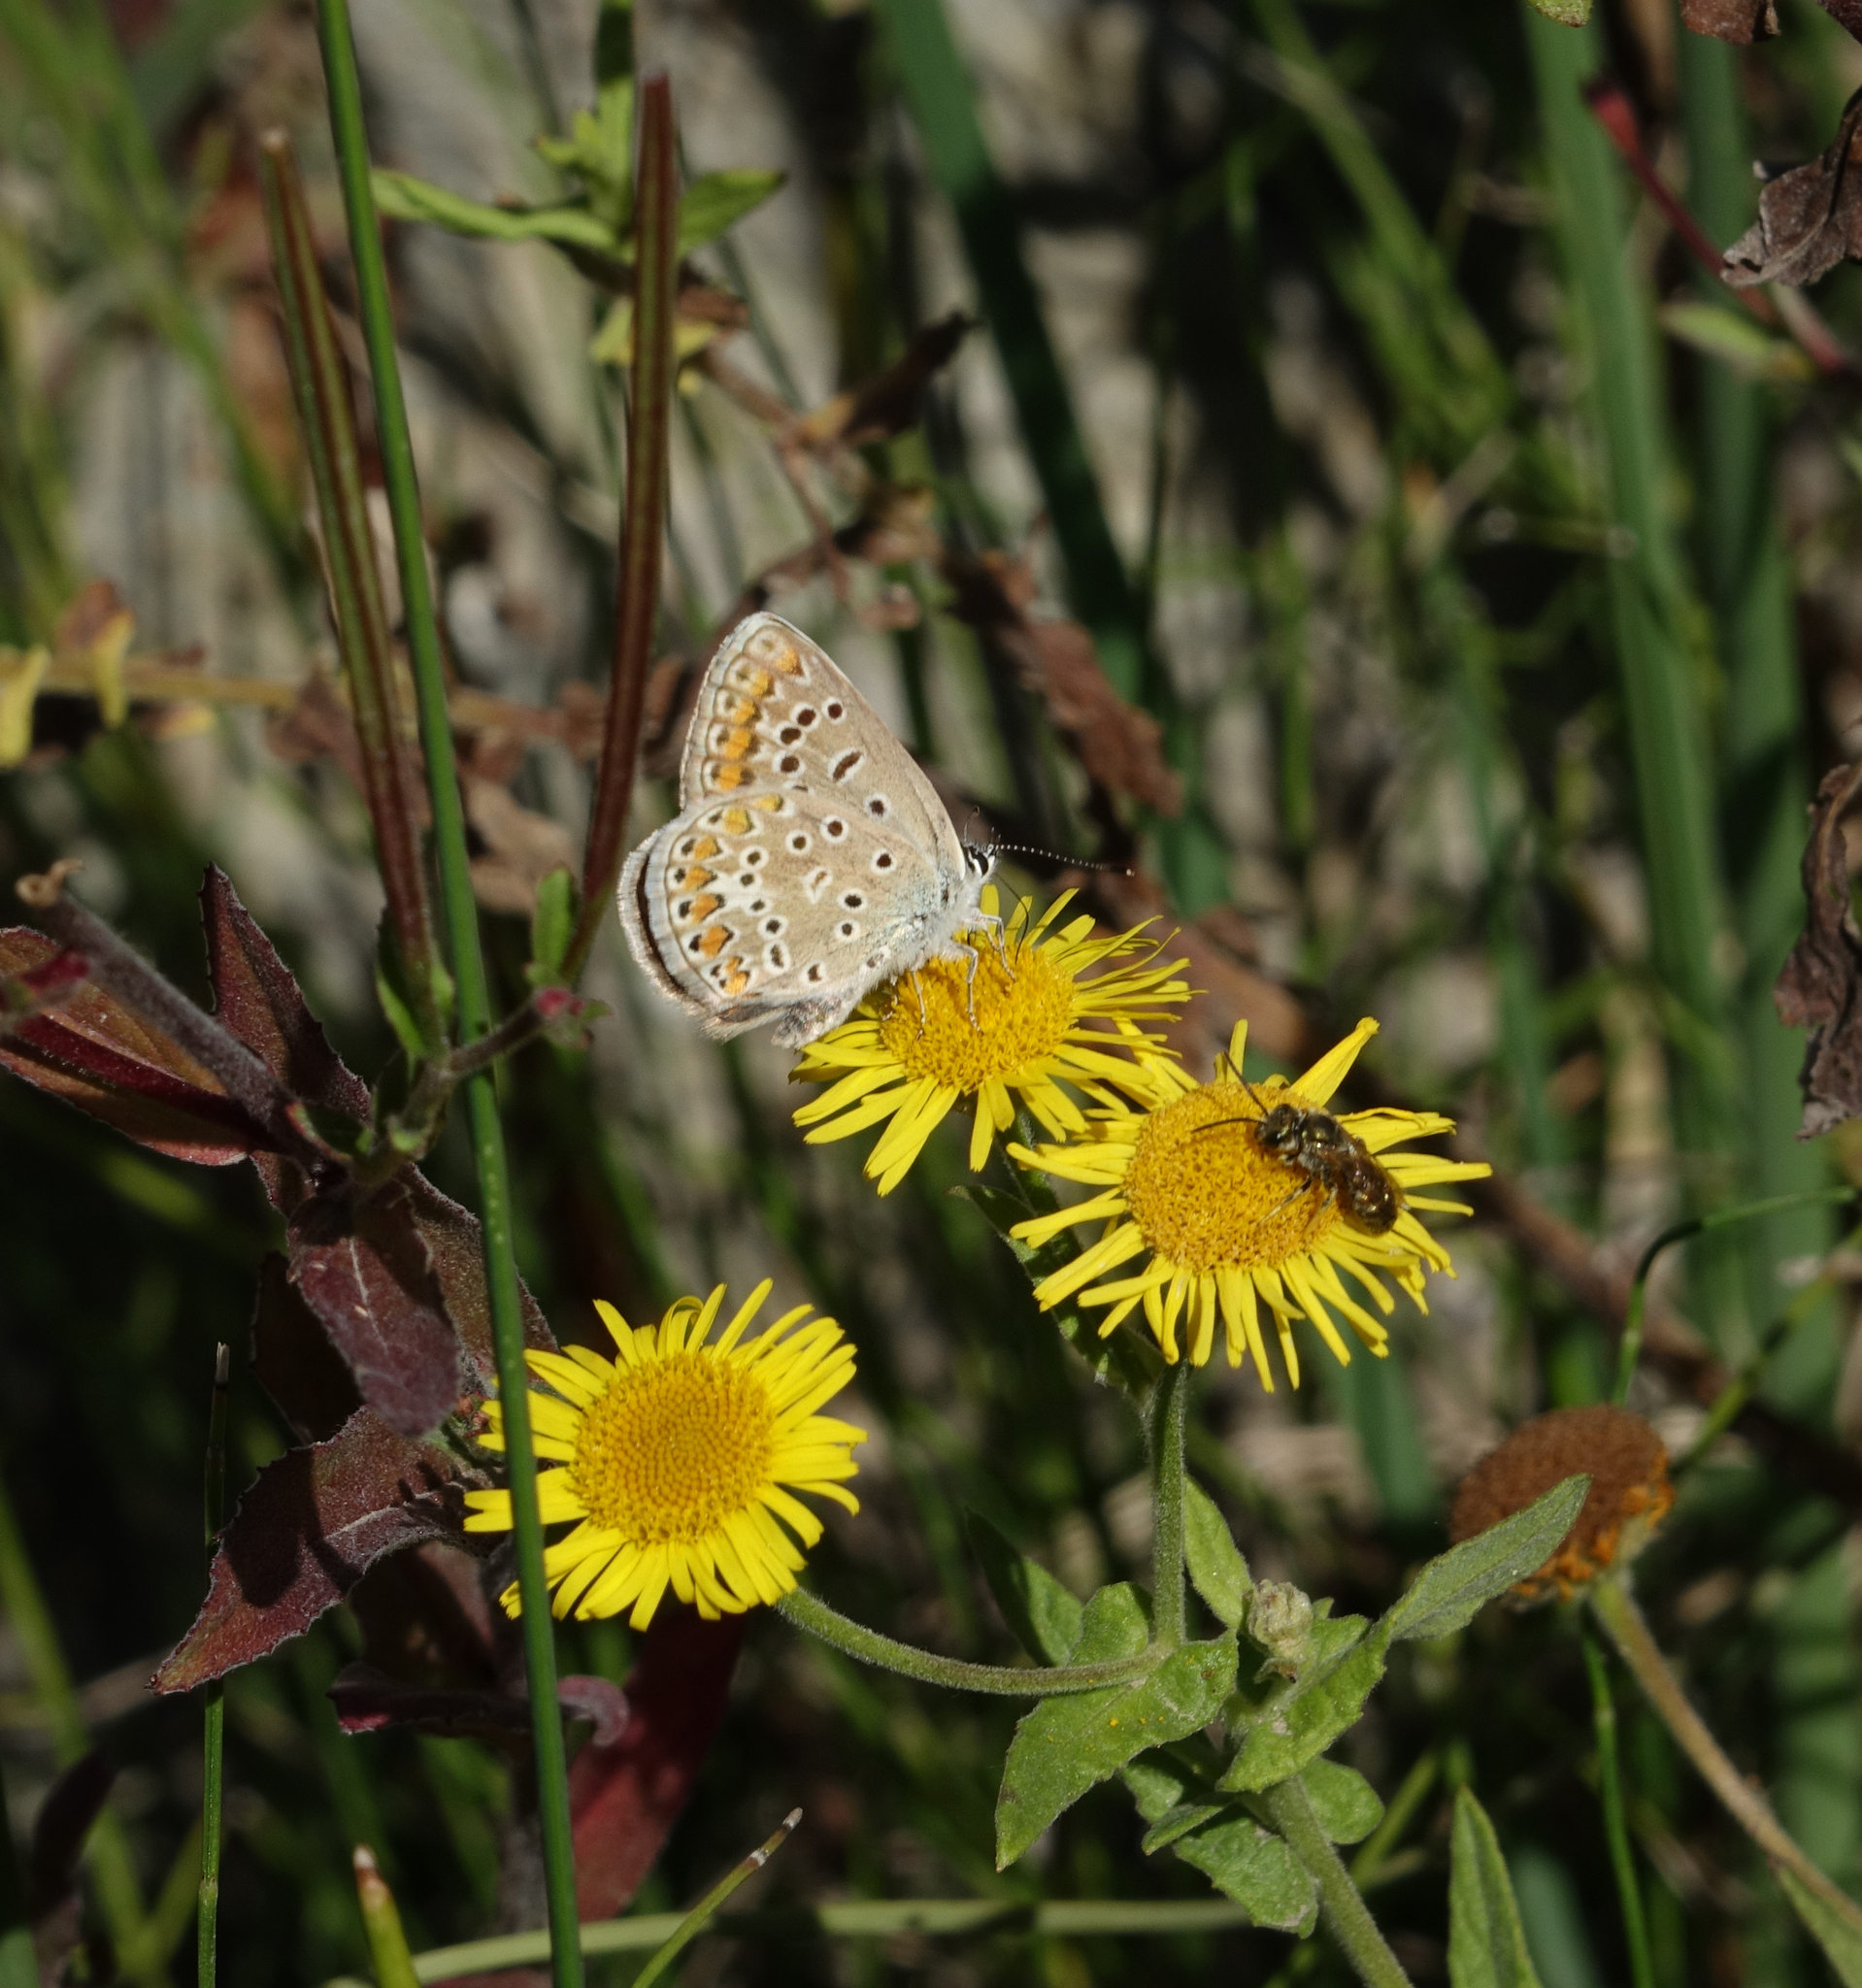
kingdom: Animalia
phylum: Arthropoda
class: Insecta
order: Lepidoptera
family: Lycaenidae
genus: Polyommatus
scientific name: Polyommatus icarus
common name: Common blue
